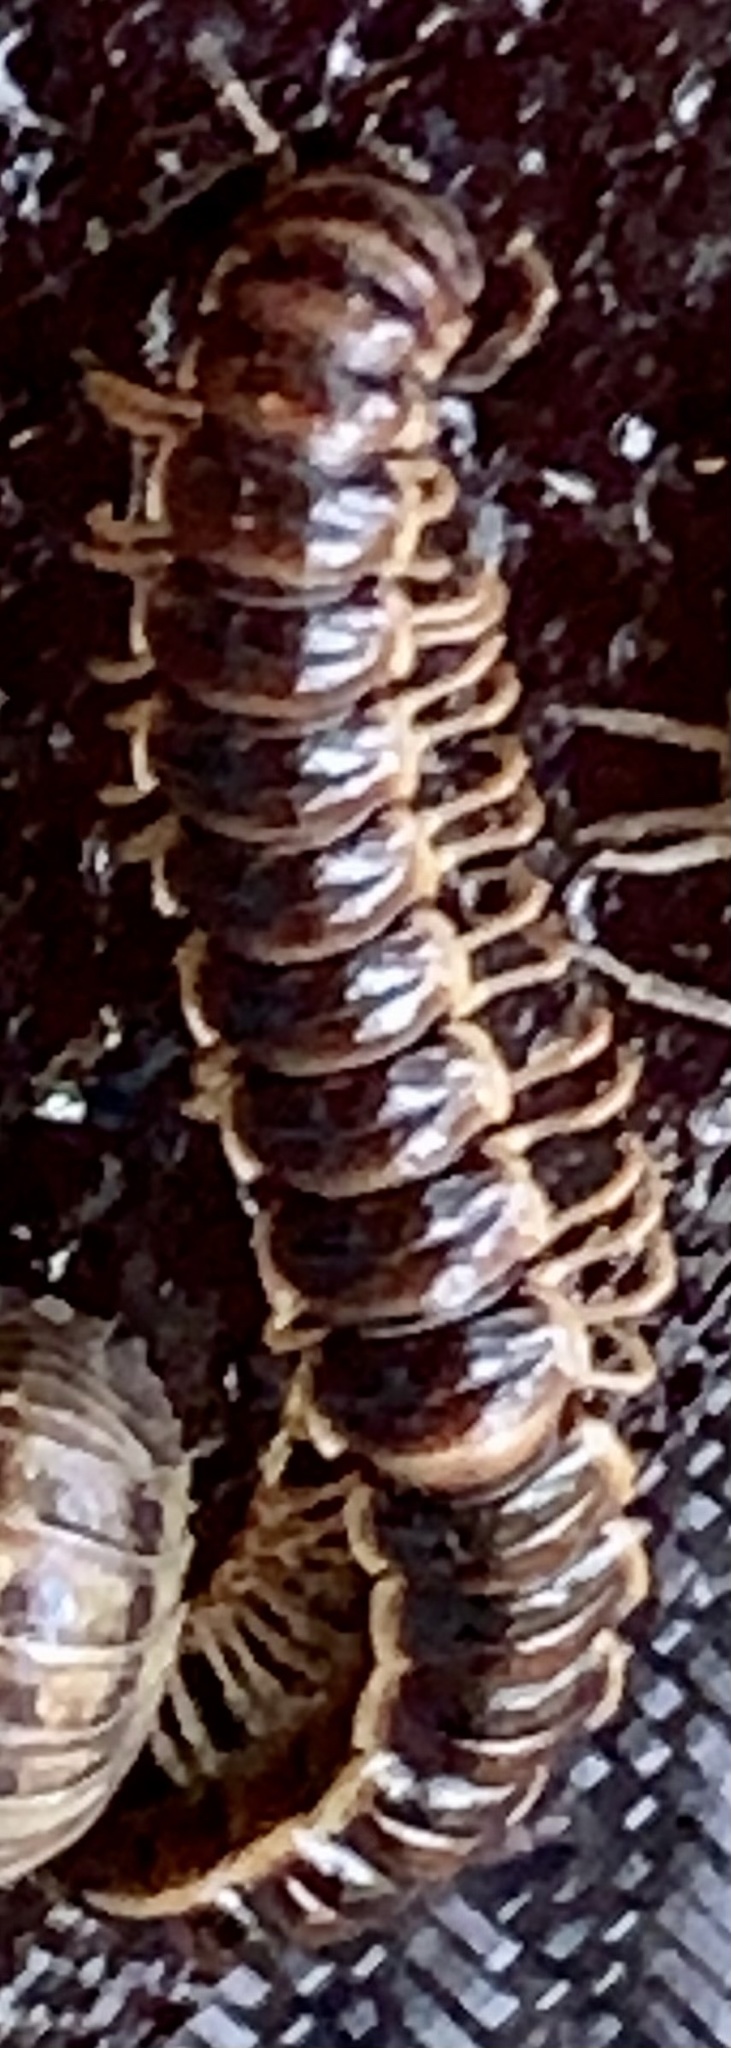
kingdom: Animalia
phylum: Arthropoda
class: Diplopoda
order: Polydesmida
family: Paradoxosomatidae
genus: Oxidus
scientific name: Oxidus gracilis
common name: Greenhouse millipede
